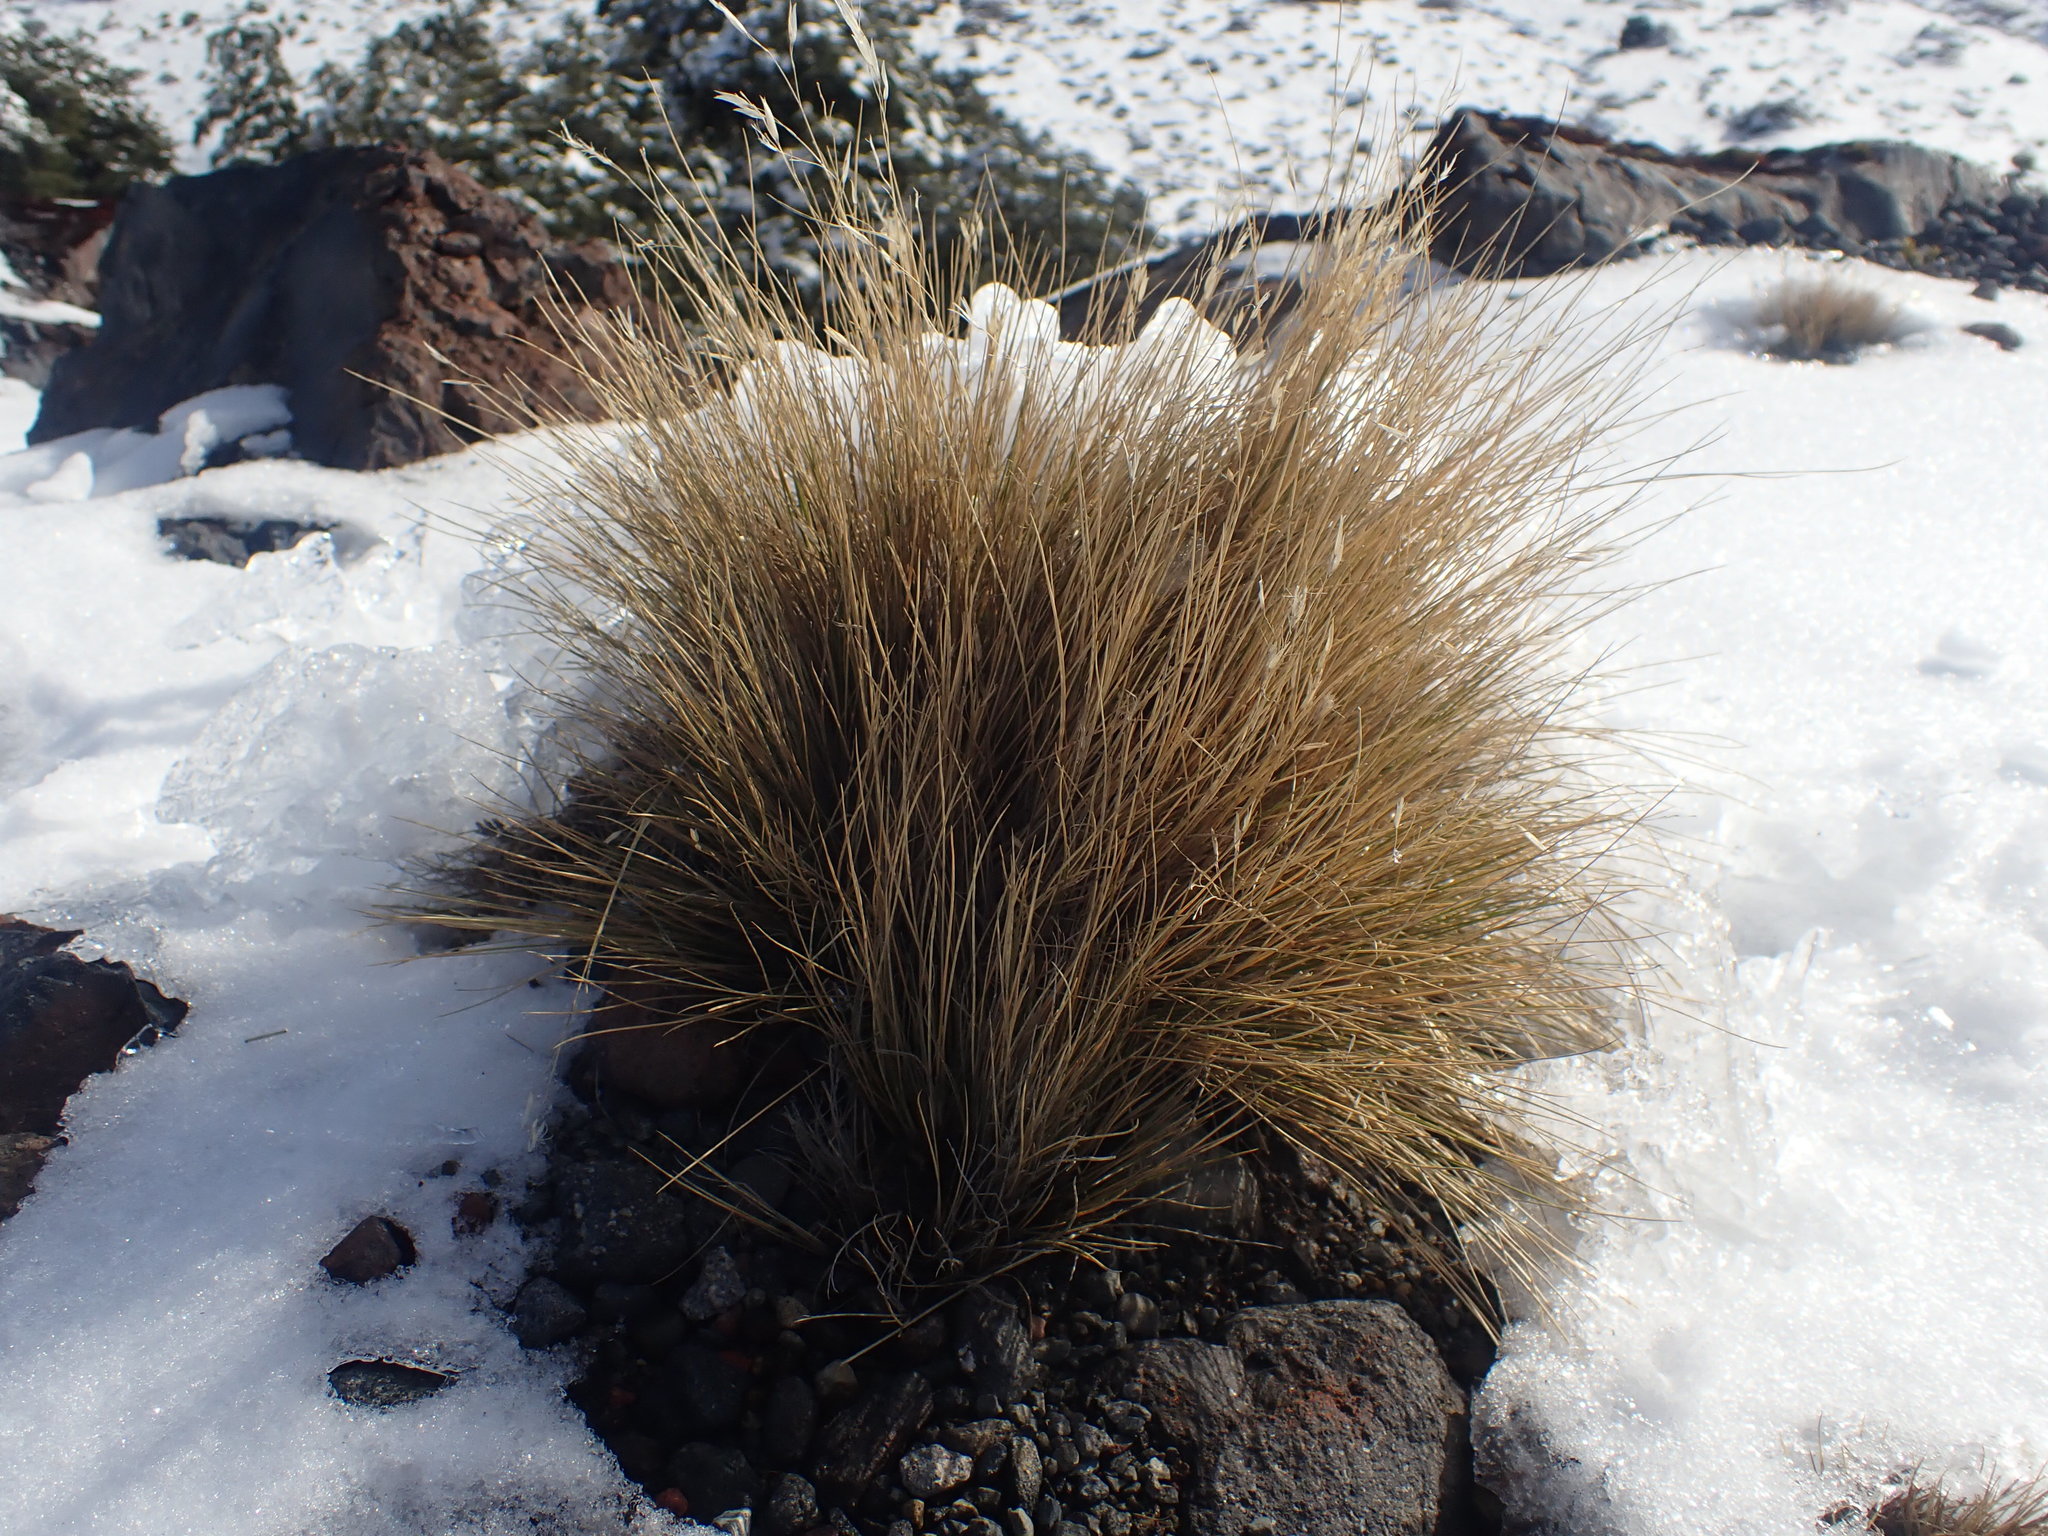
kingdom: Plantae
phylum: Tracheophyta
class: Liliopsida
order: Poales
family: Poaceae
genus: Rytidosperma
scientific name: Rytidosperma setifolium
